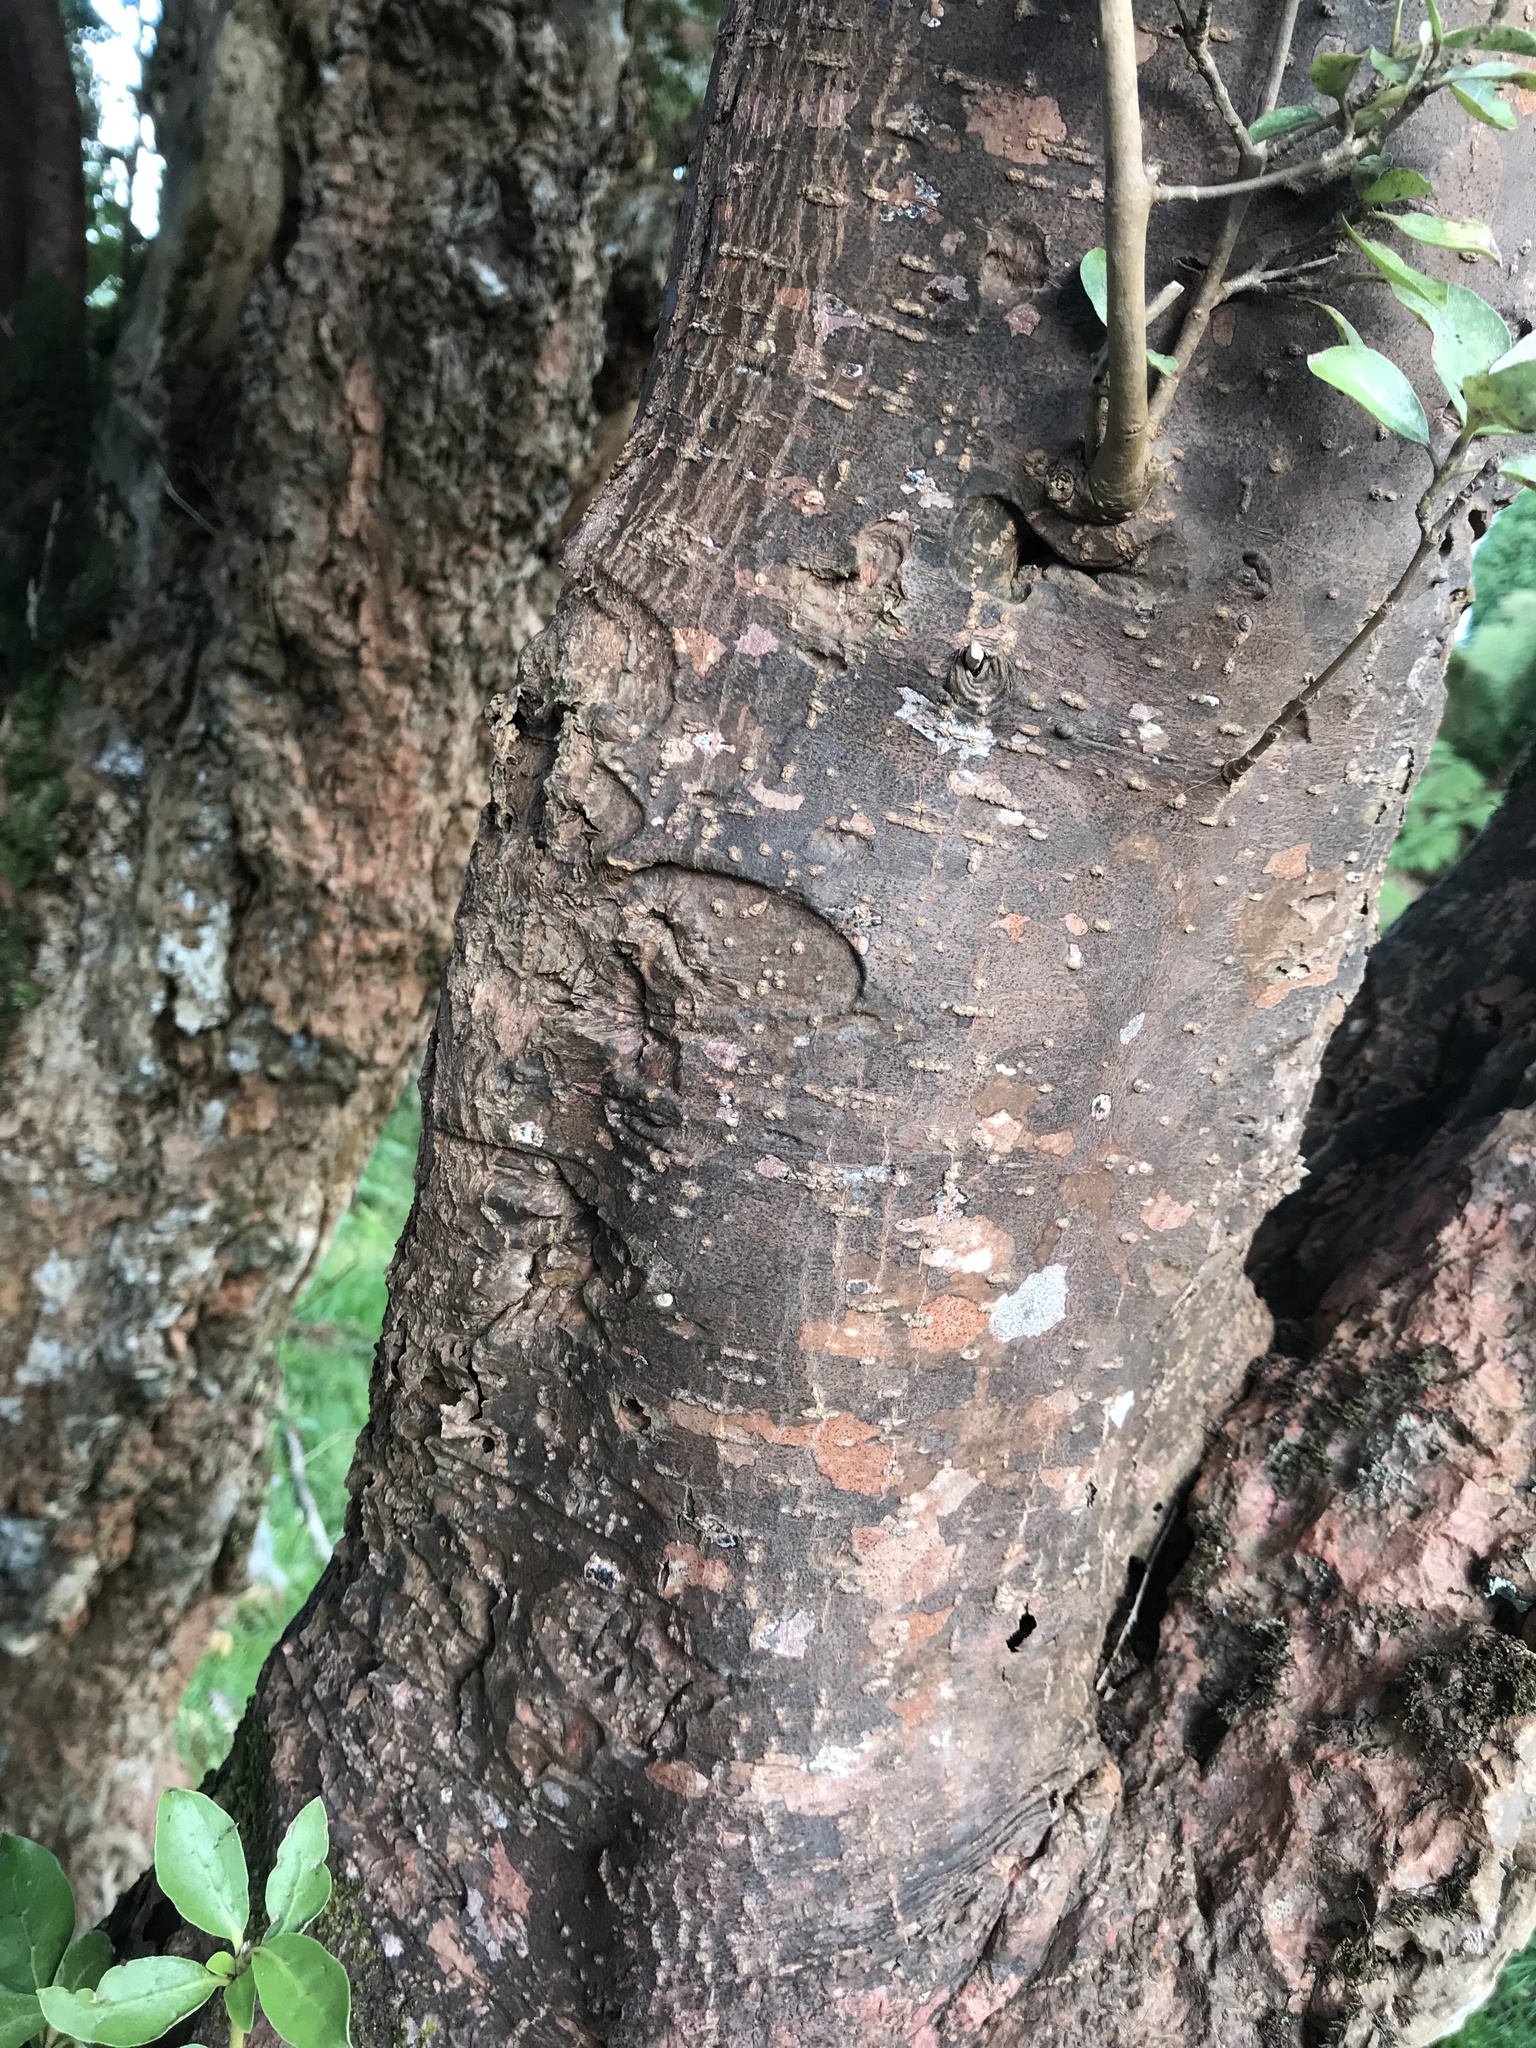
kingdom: Plantae
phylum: Tracheophyta
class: Magnoliopsida
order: Gentianales
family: Rubiaceae
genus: Coprosma
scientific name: Coprosma chathamica
